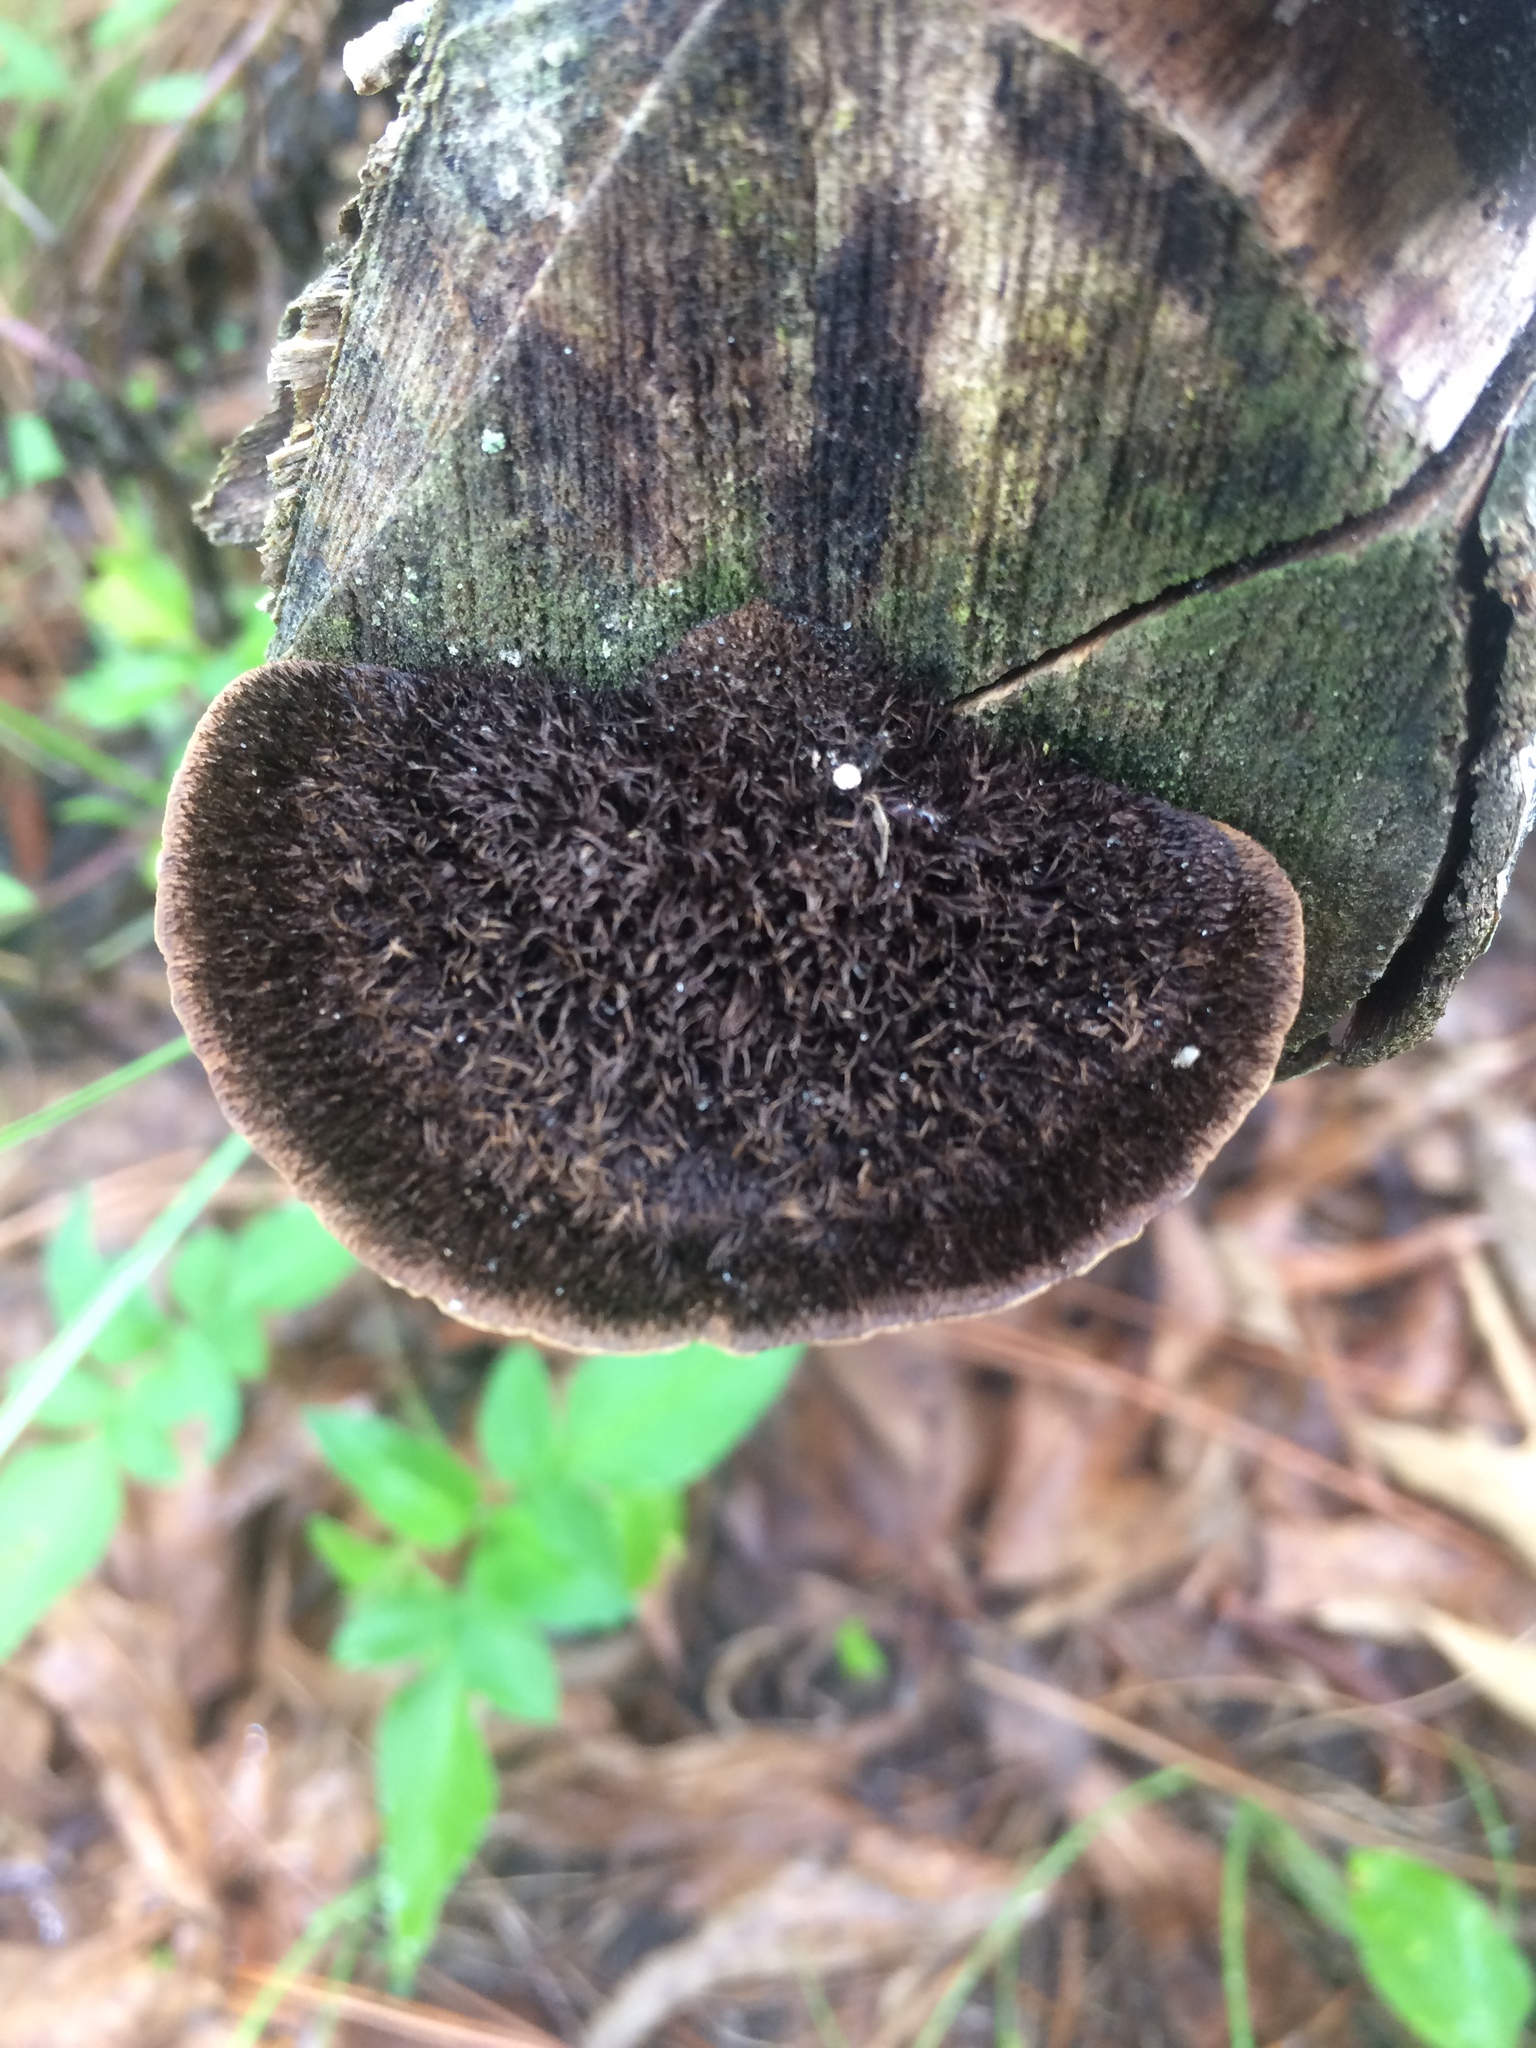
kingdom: Fungi
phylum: Basidiomycota
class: Agaricomycetes
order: Polyporales
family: Cerrenaceae
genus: Cerrena
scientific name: Cerrena hydnoides
